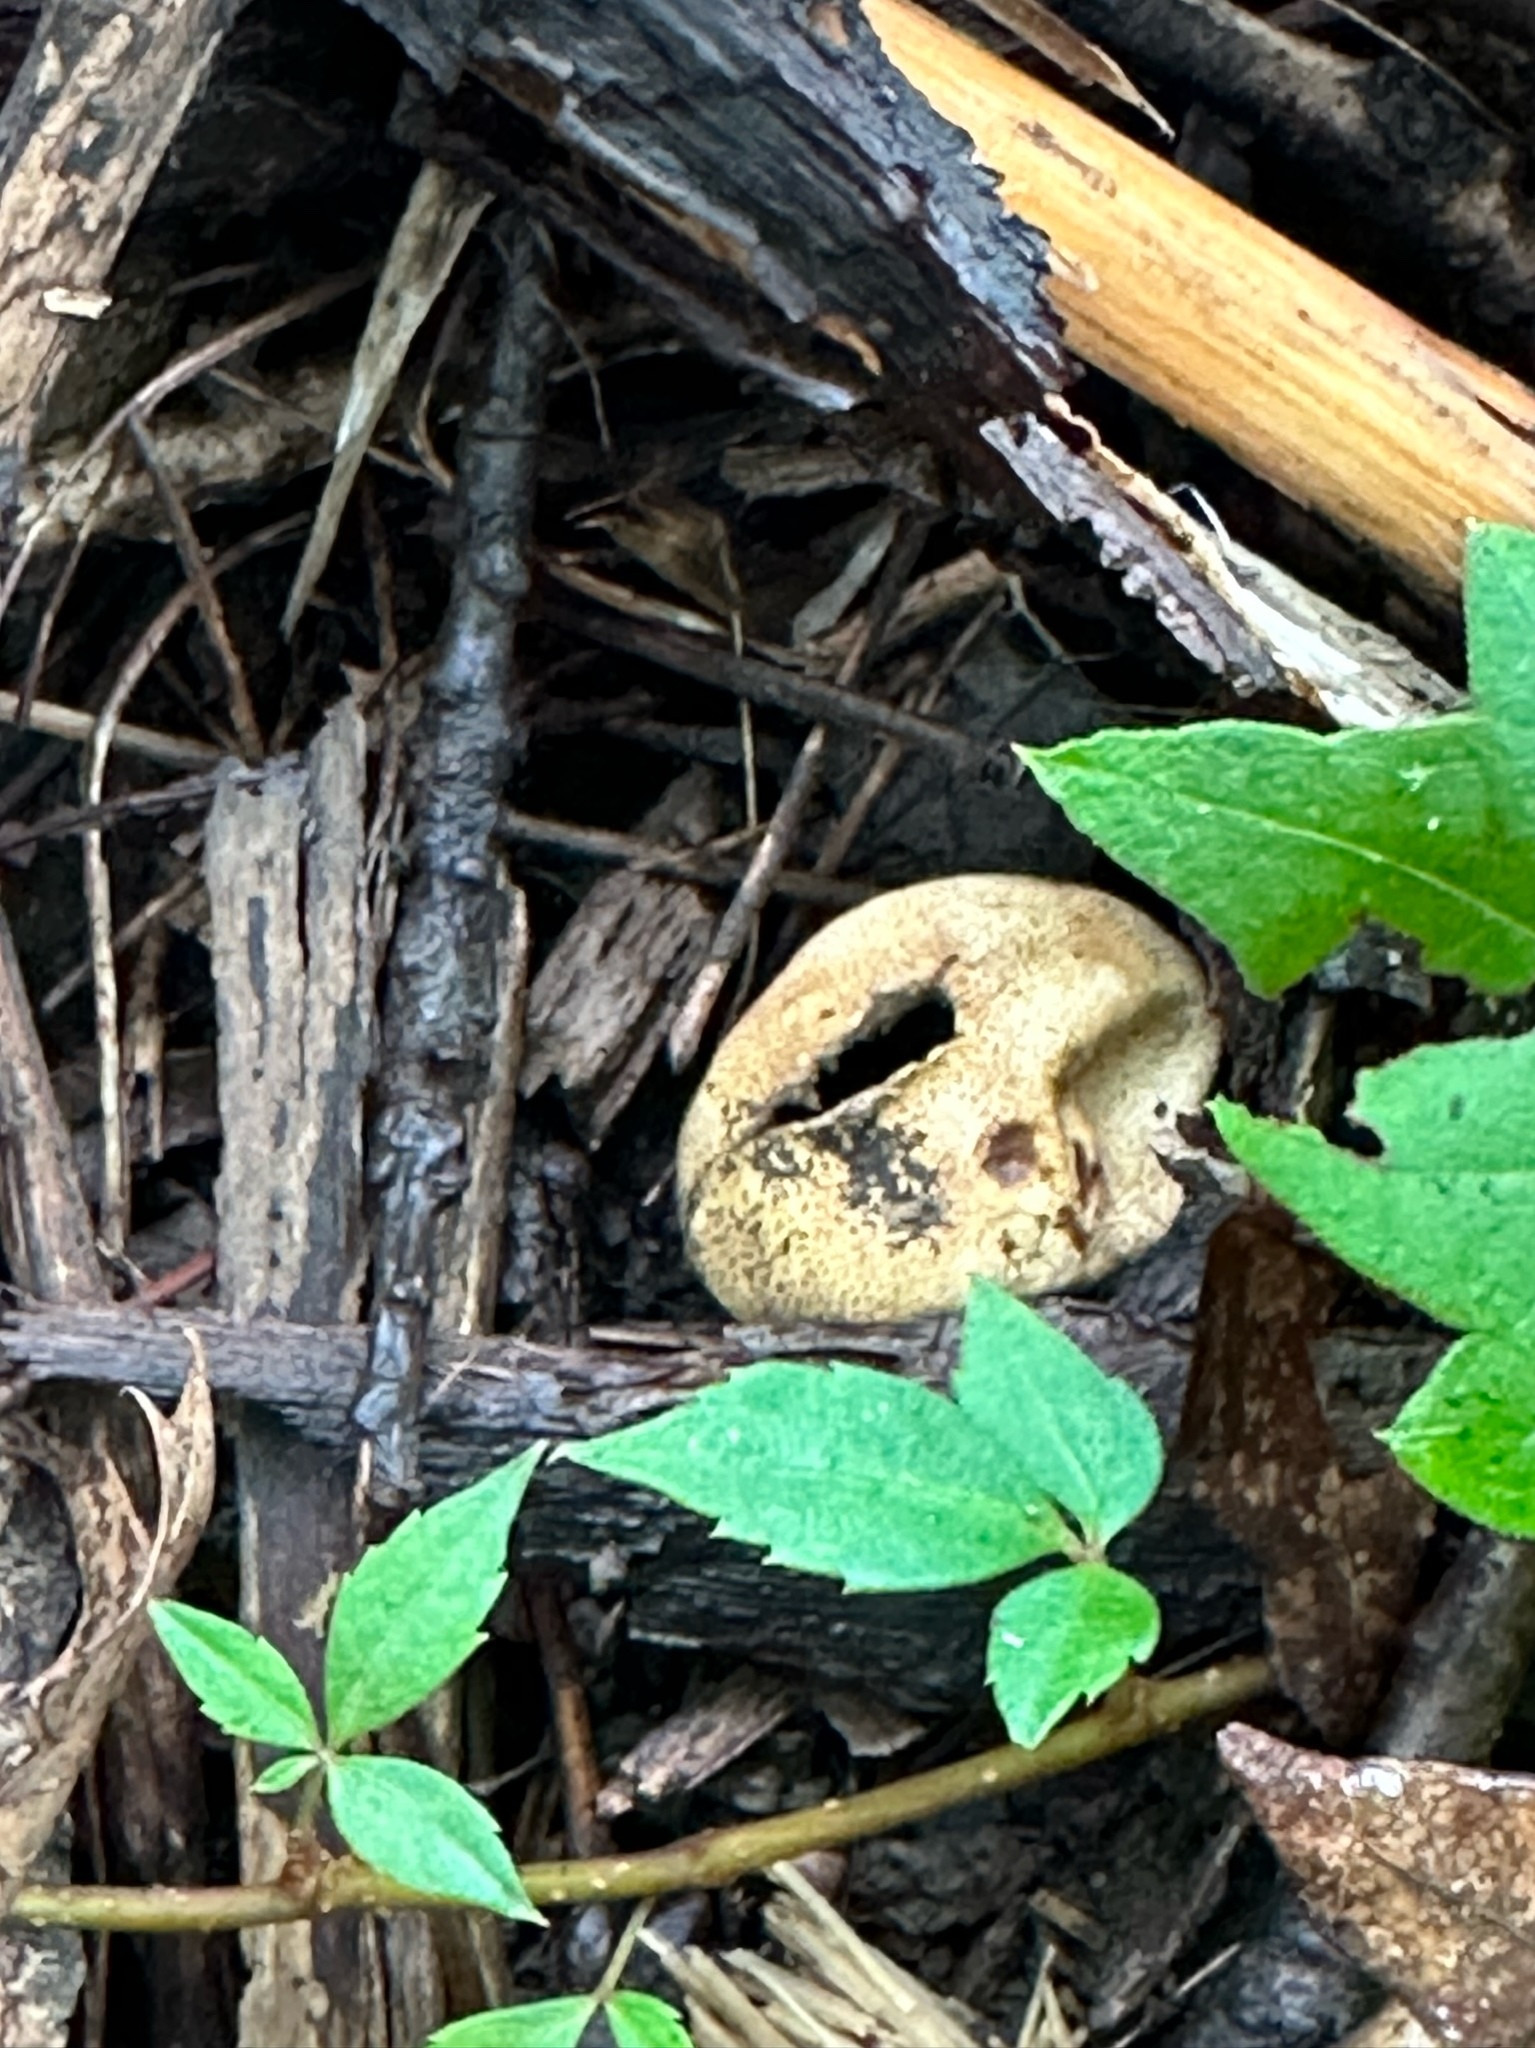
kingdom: Fungi
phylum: Basidiomycota
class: Agaricomycetes
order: Boletales
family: Sclerodermataceae
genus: Scleroderma
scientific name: Scleroderma areolatum
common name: Leopard earthball
